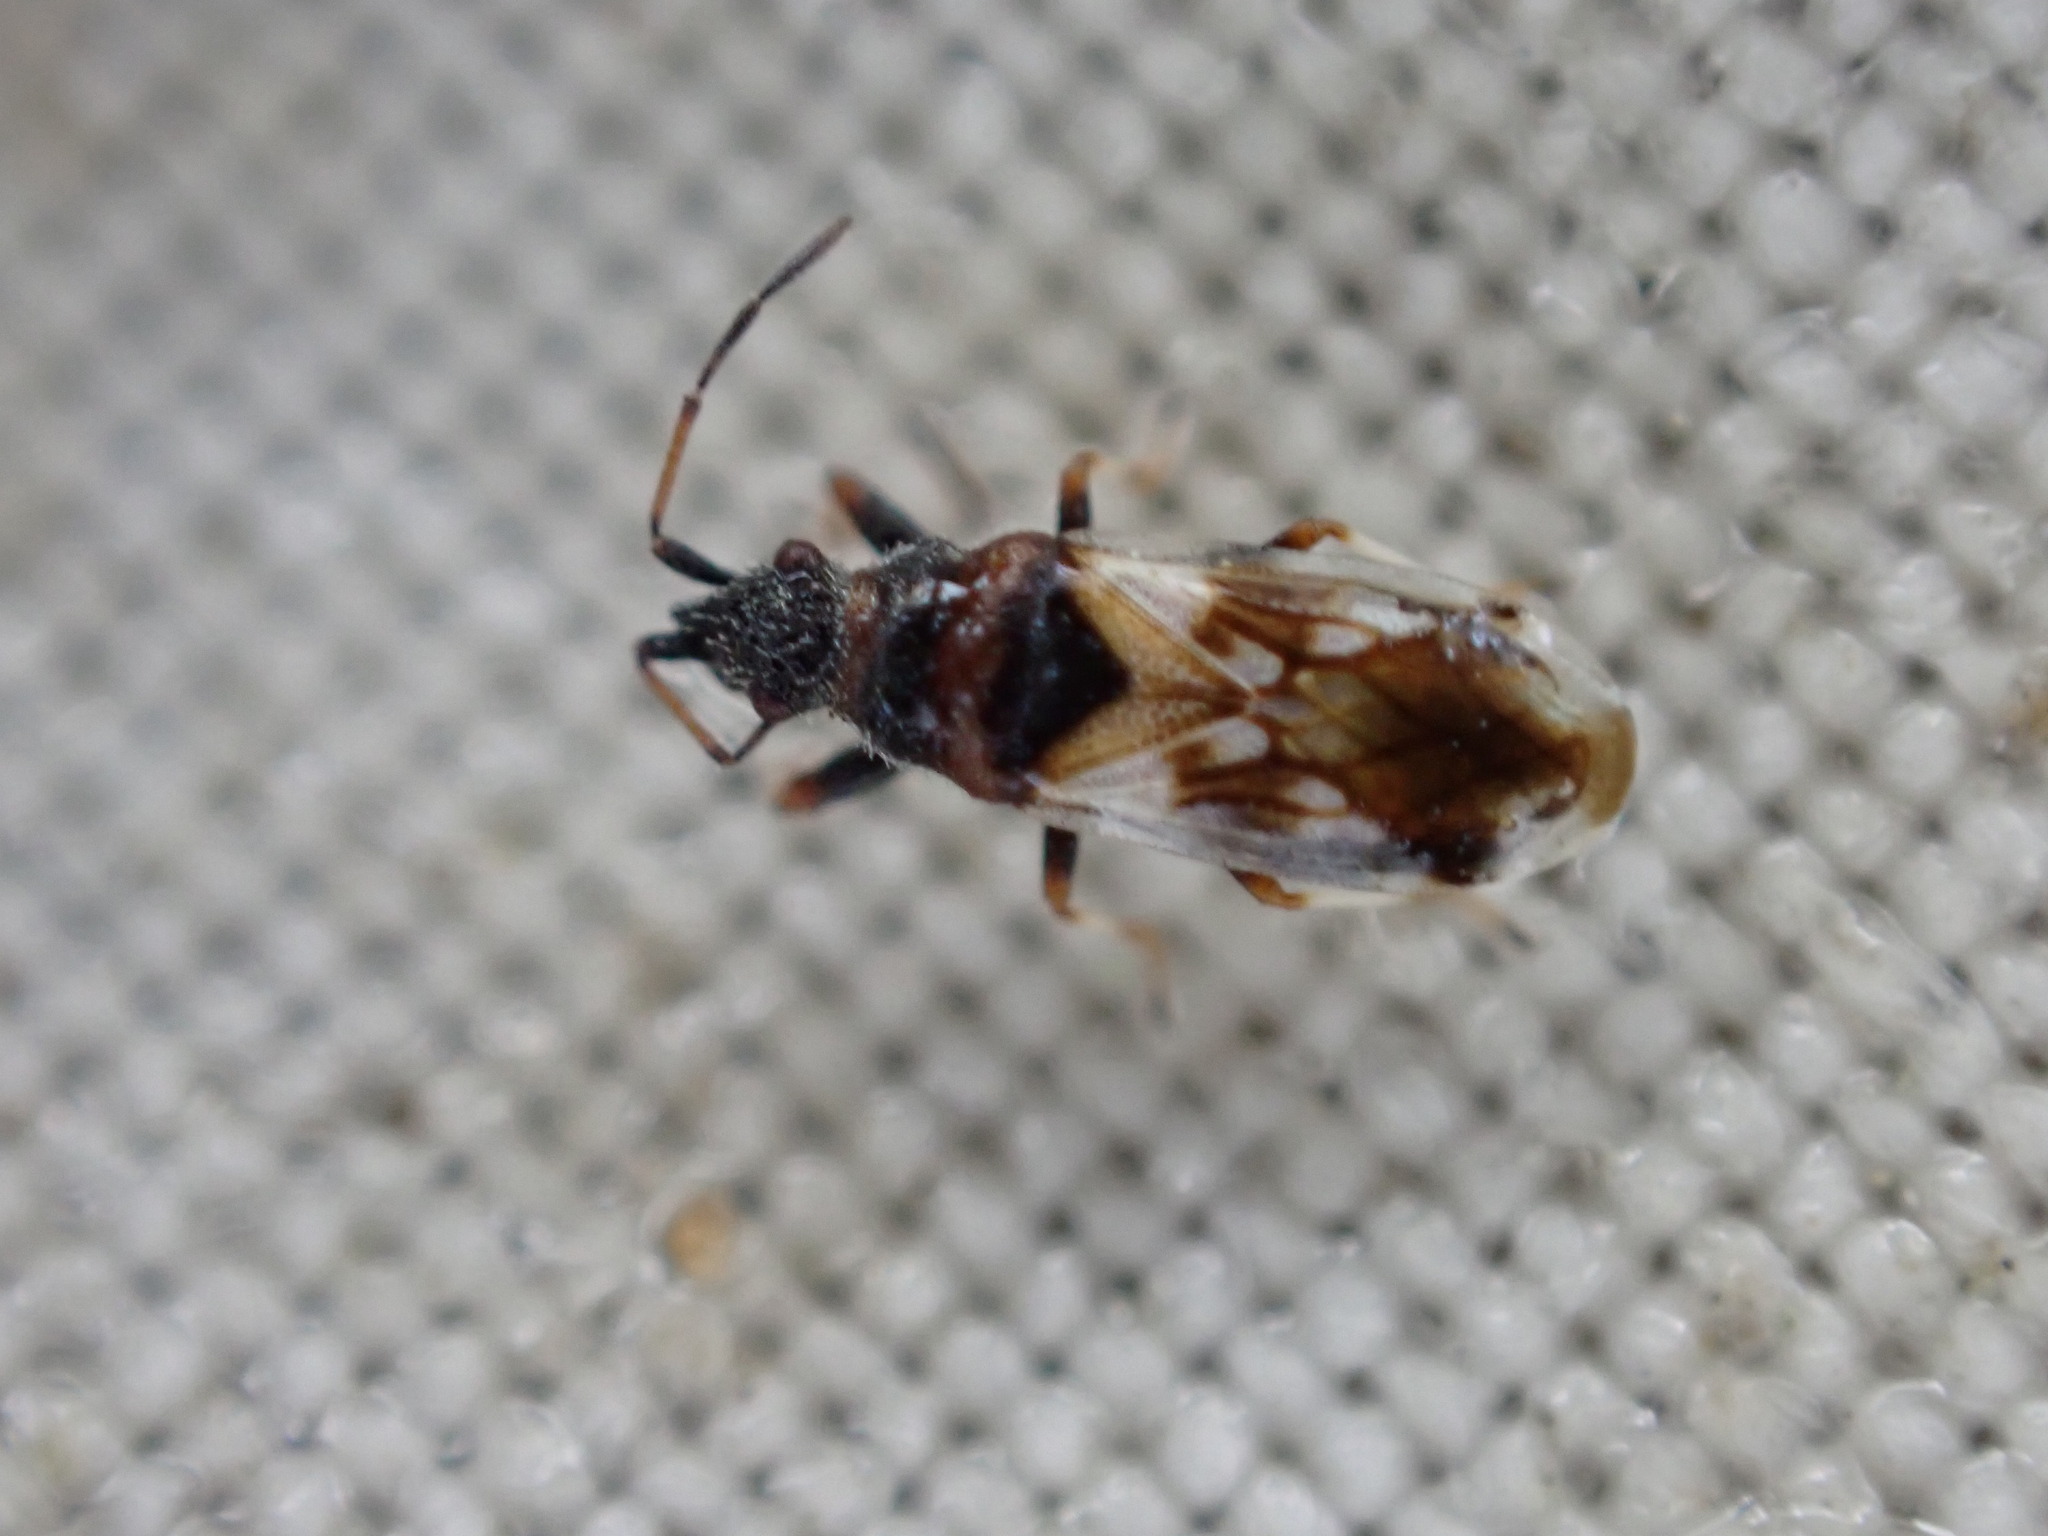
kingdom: Animalia
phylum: Arthropoda
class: Insecta
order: Hemiptera
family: Oxycarenidae
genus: Macroplax
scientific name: Macroplax fasciata
